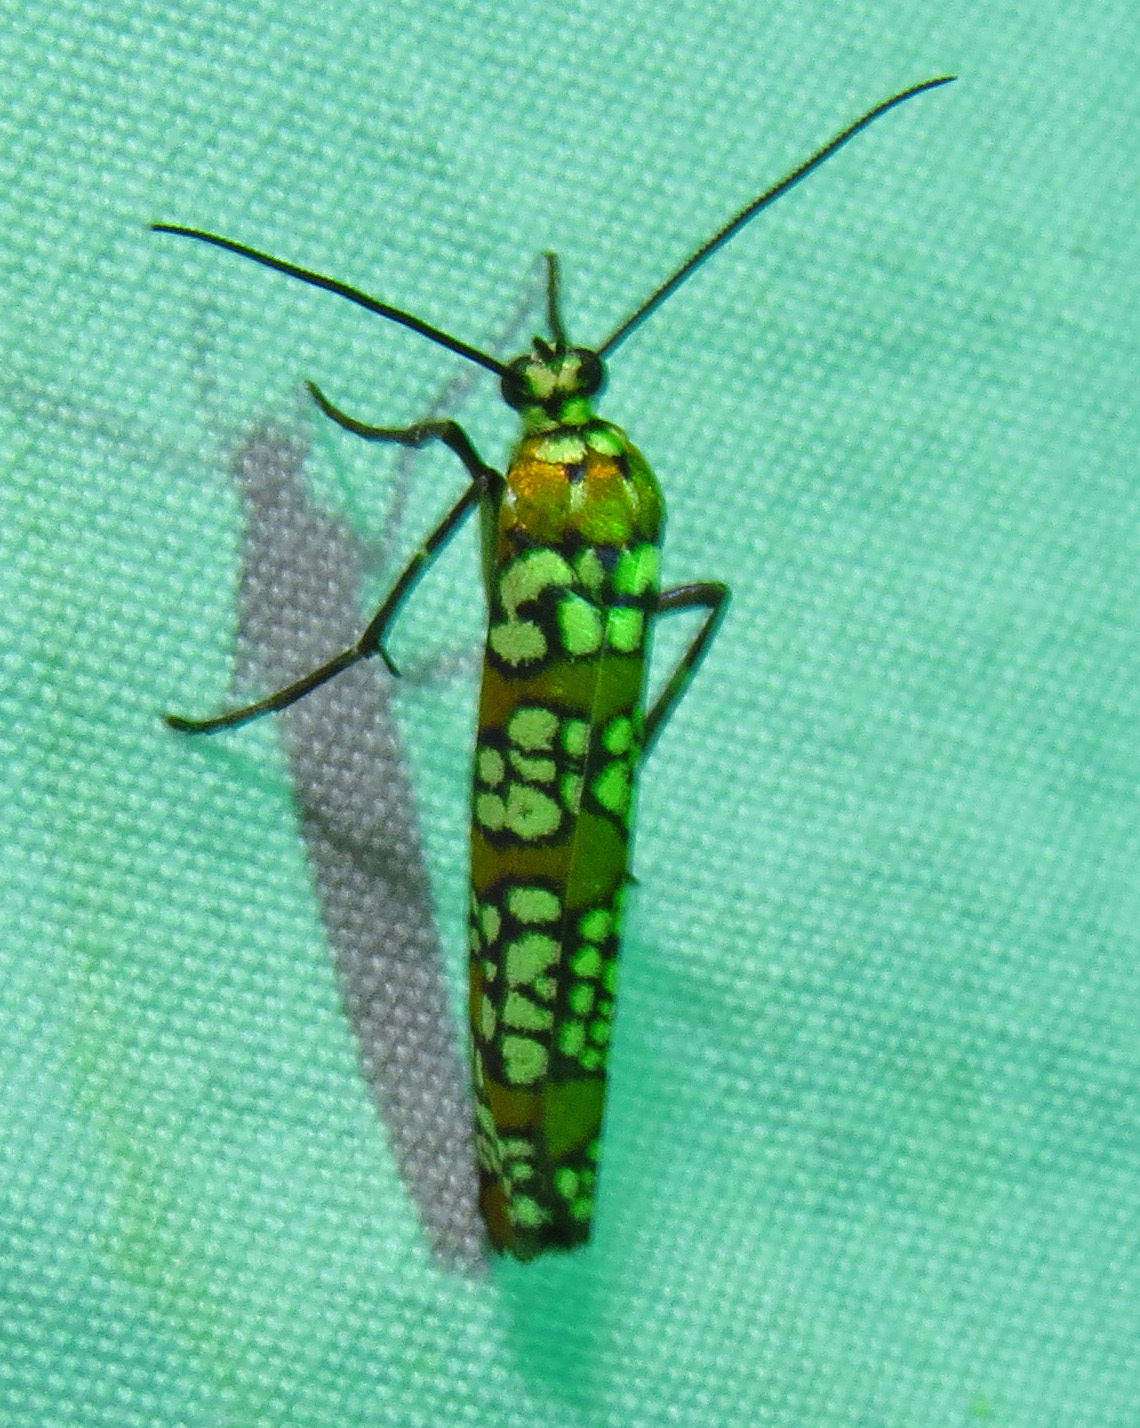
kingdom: Animalia
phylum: Arthropoda
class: Insecta
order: Lepidoptera
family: Attevidae
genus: Atteva
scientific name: Atteva punctella
